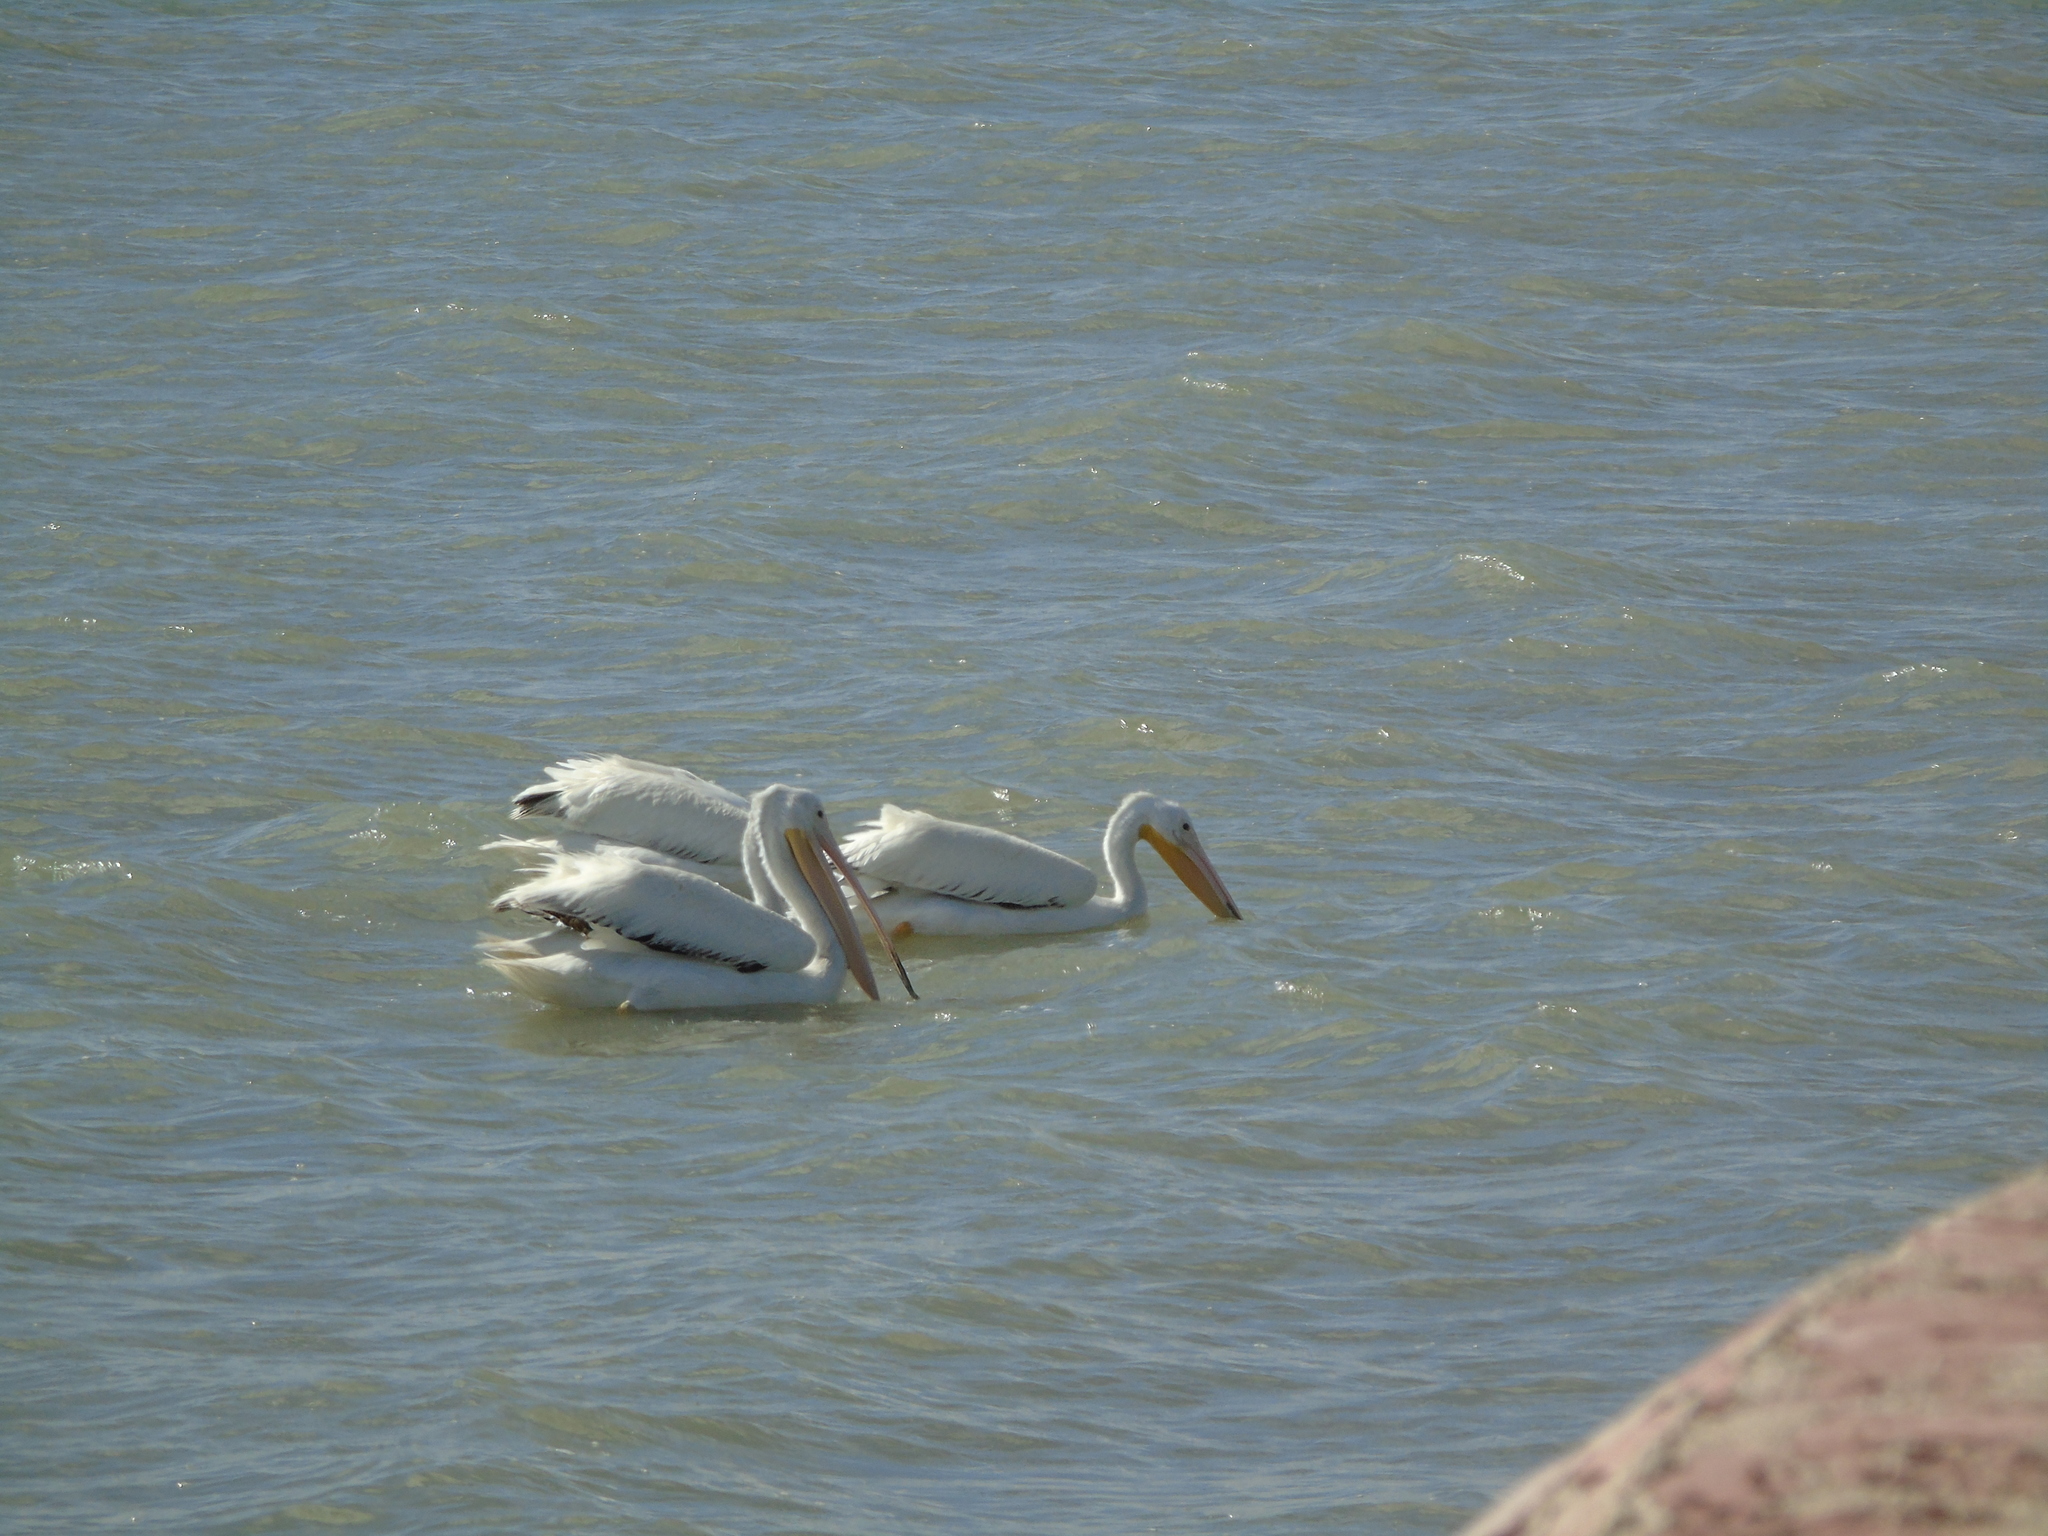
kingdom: Animalia
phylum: Chordata
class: Aves
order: Pelecaniformes
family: Pelecanidae
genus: Pelecanus
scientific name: Pelecanus erythrorhynchos
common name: American white pelican
